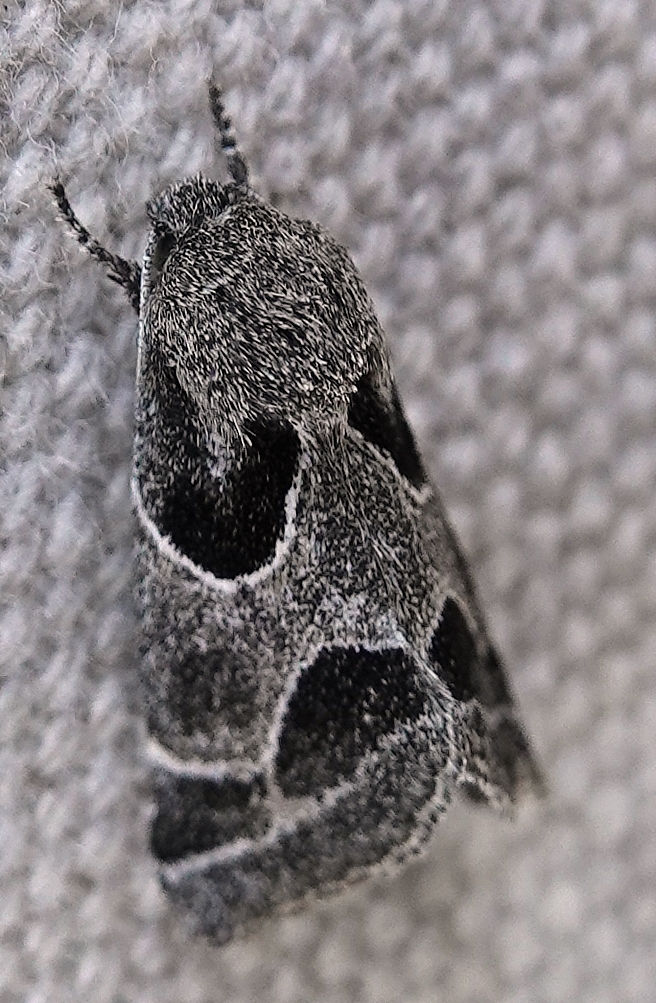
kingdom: Animalia
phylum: Arthropoda
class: Insecta
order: Lepidoptera
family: Noctuidae
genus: Schinia
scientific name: Schinia rivulosa
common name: Scarce meal-moth
